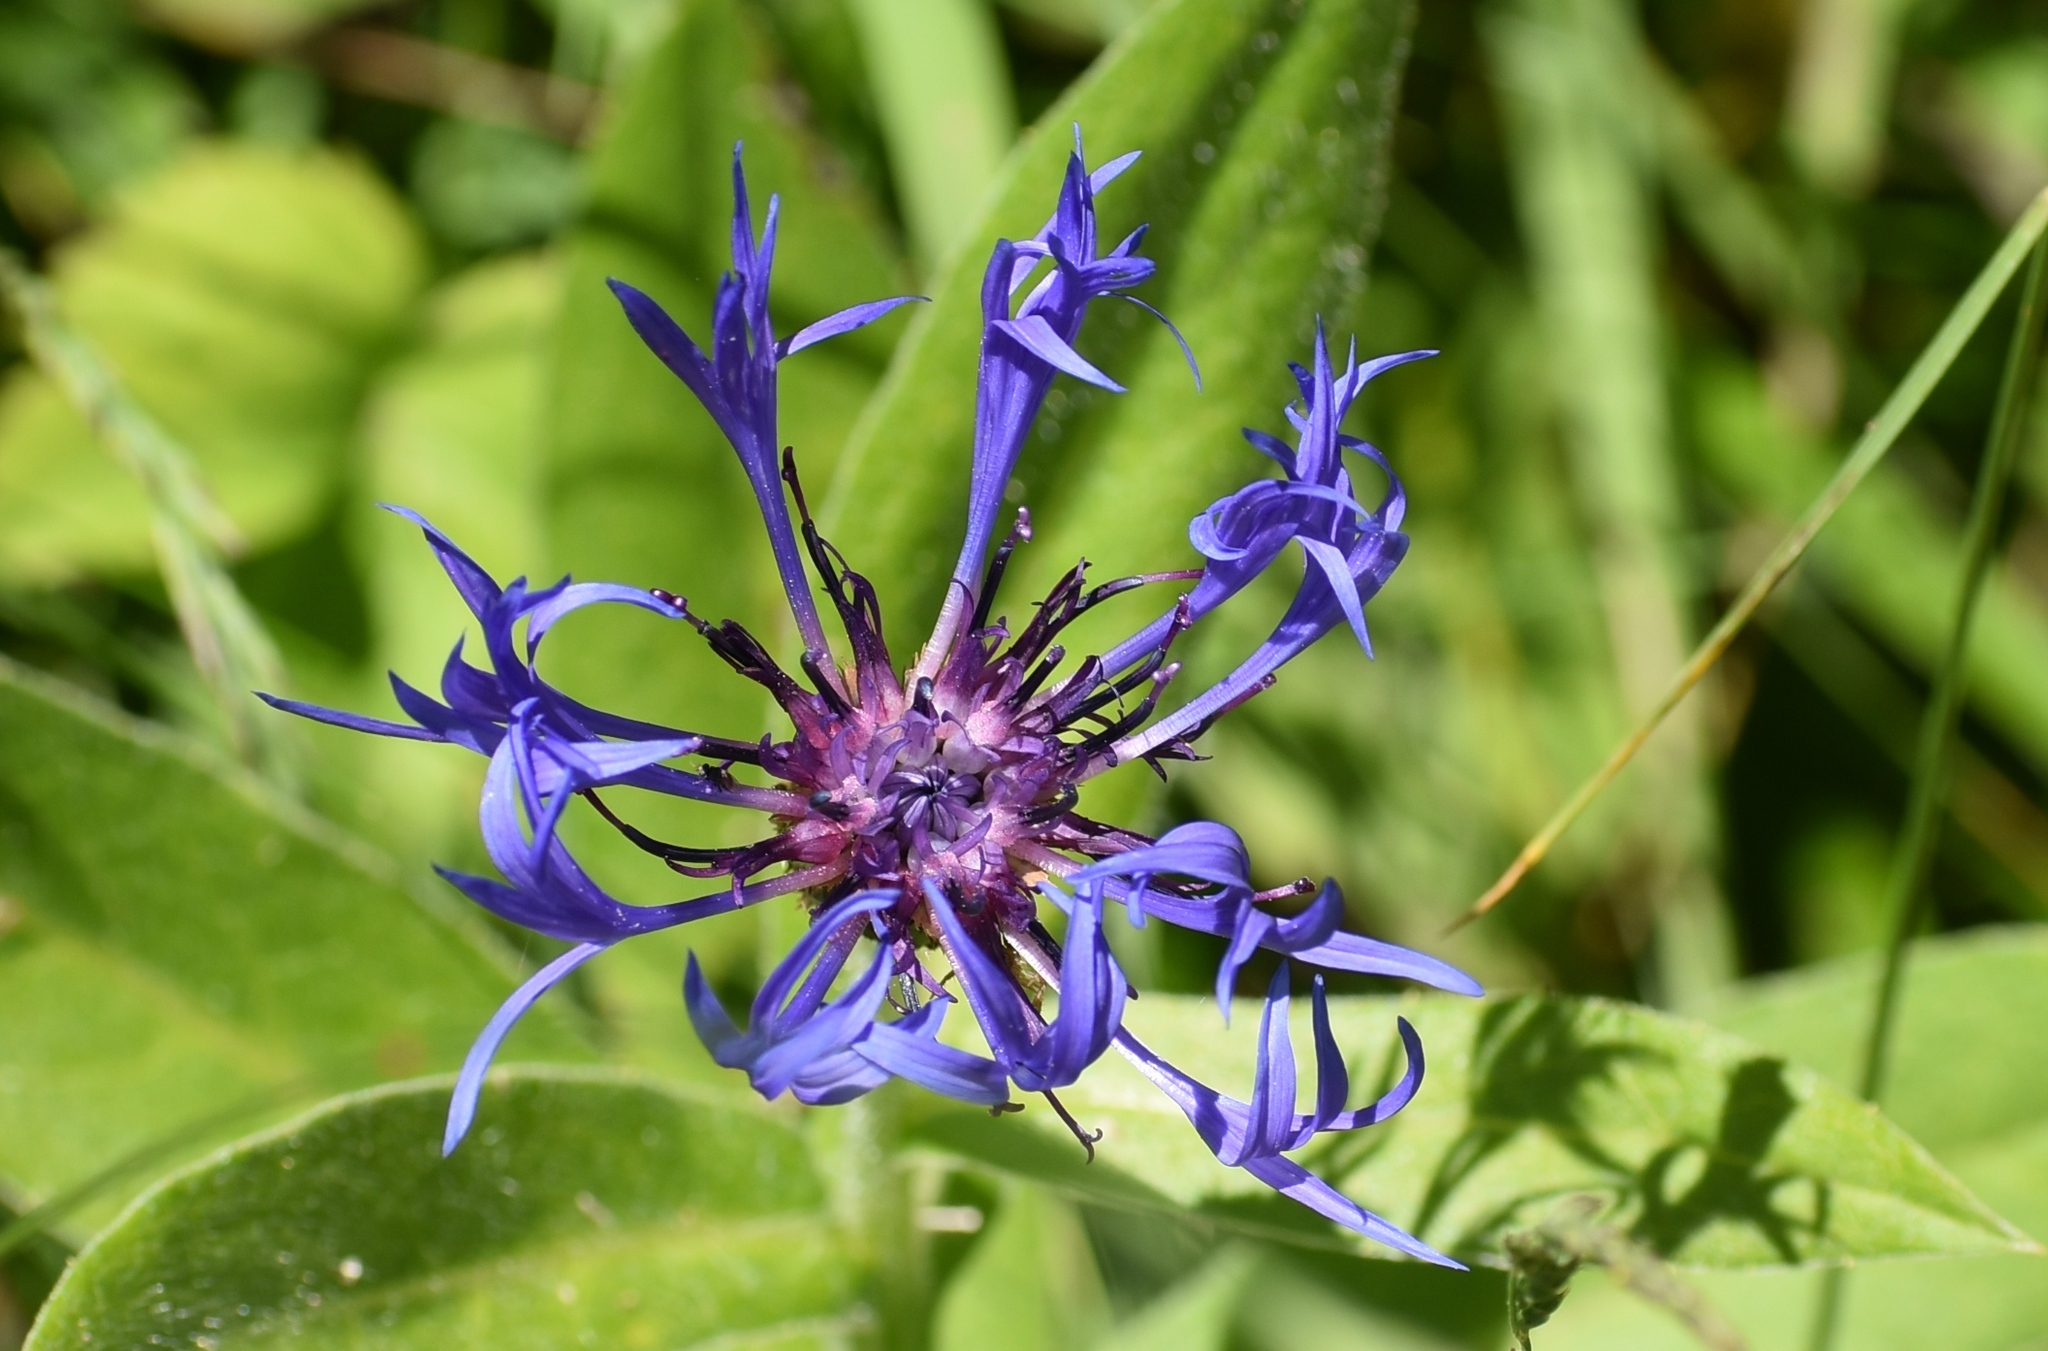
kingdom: Plantae
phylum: Tracheophyta
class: Magnoliopsida
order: Asterales
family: Asteraceae
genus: Centaurea
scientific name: Centaurea montana
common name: Perennial cornflower
